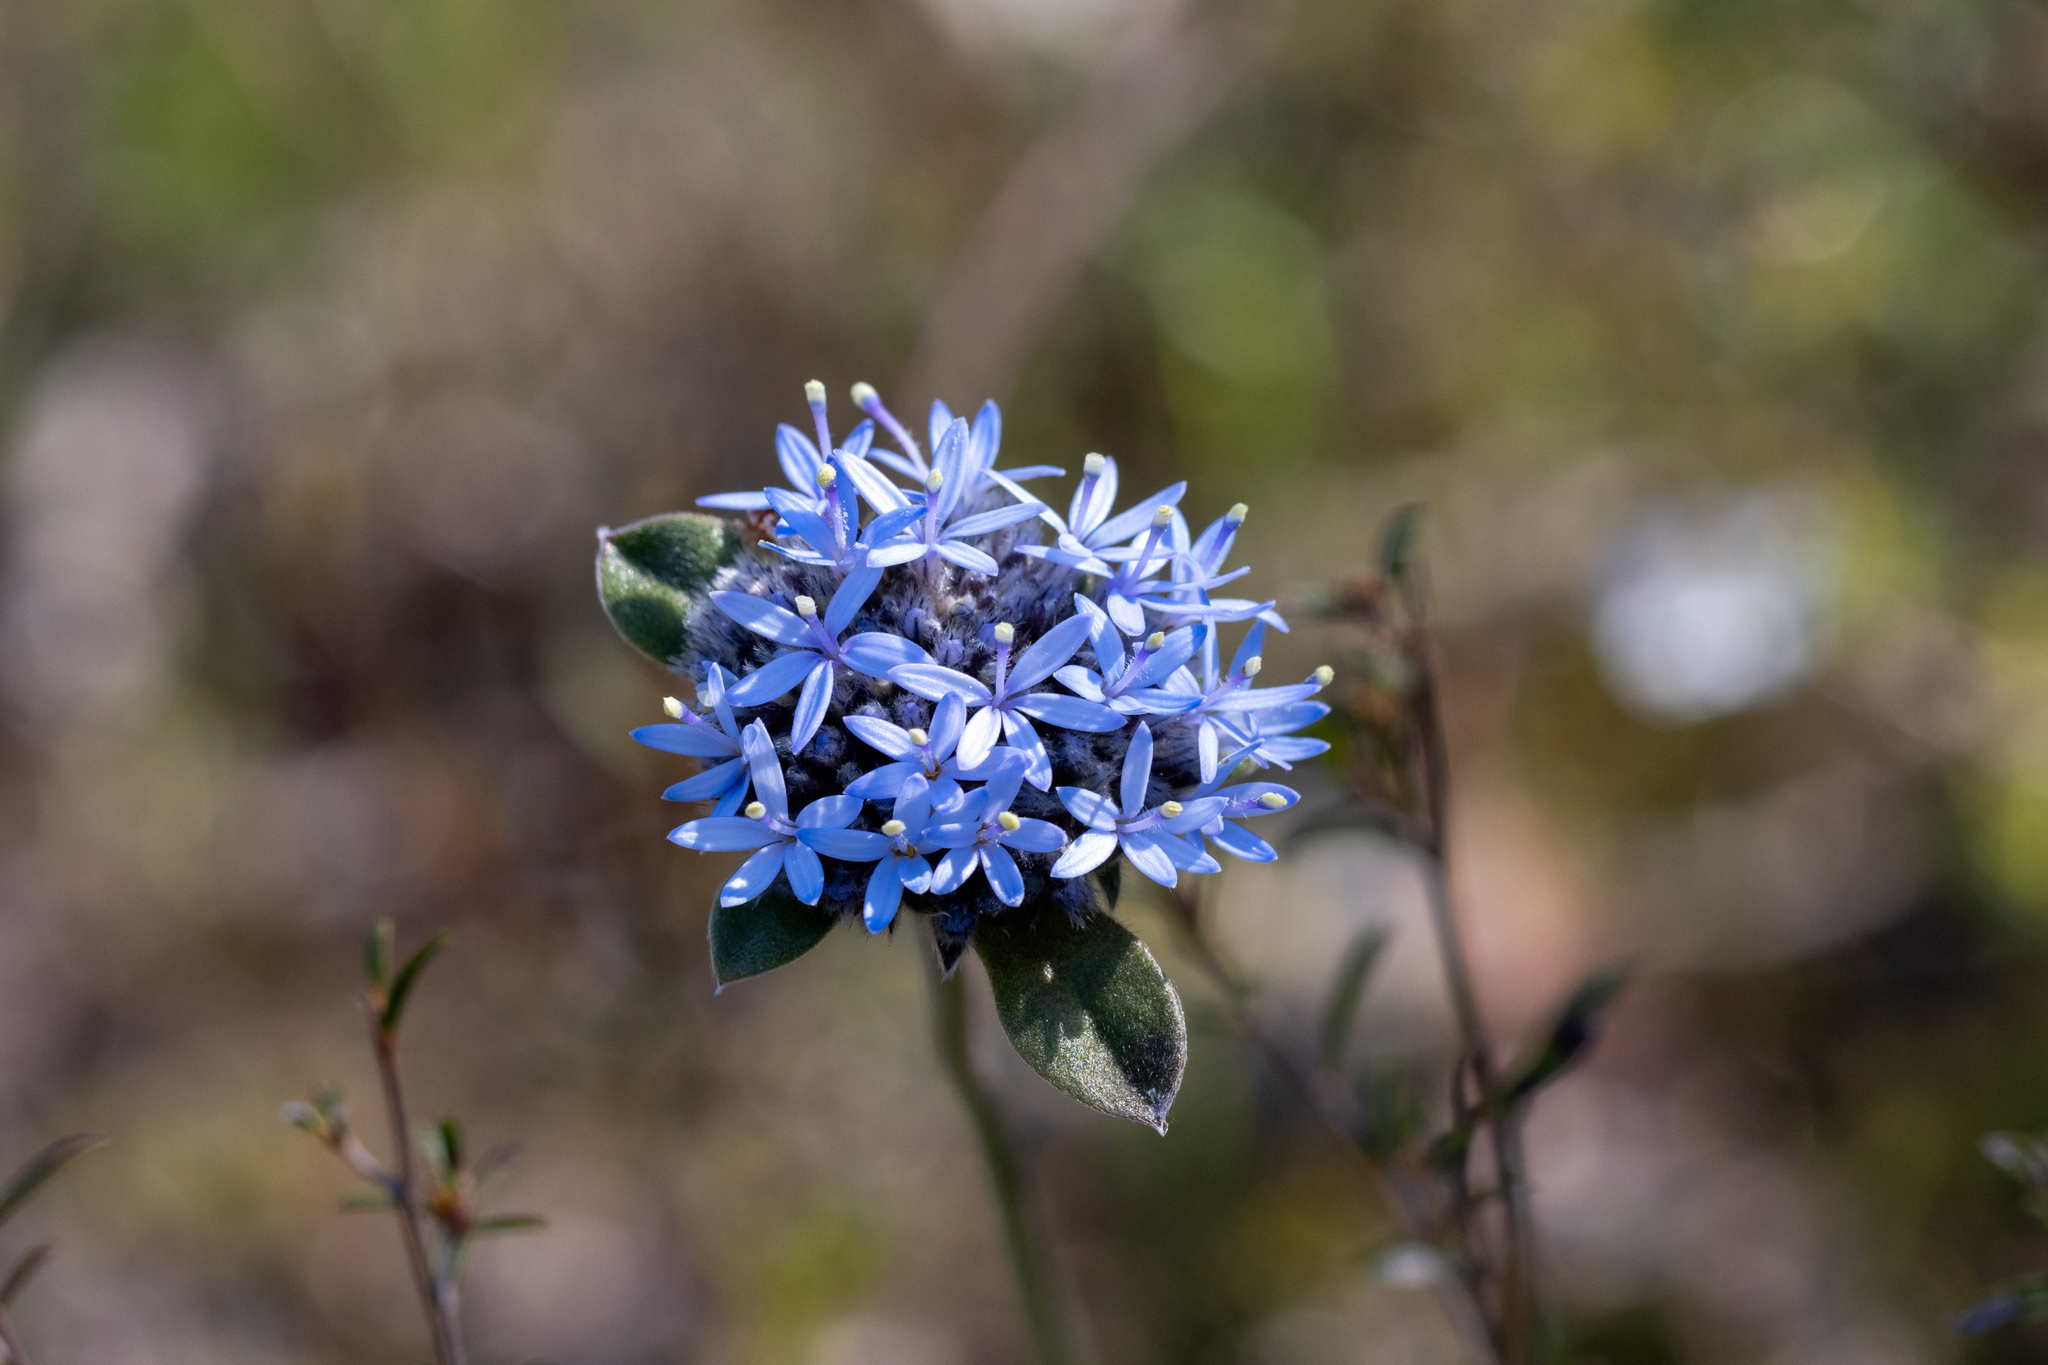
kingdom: Plantae
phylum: Tracheophyta
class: Magnoliopsida
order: Asterales
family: Goodeniaceae
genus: Brunonia
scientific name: Brunonia australis
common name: Blue pincushion
